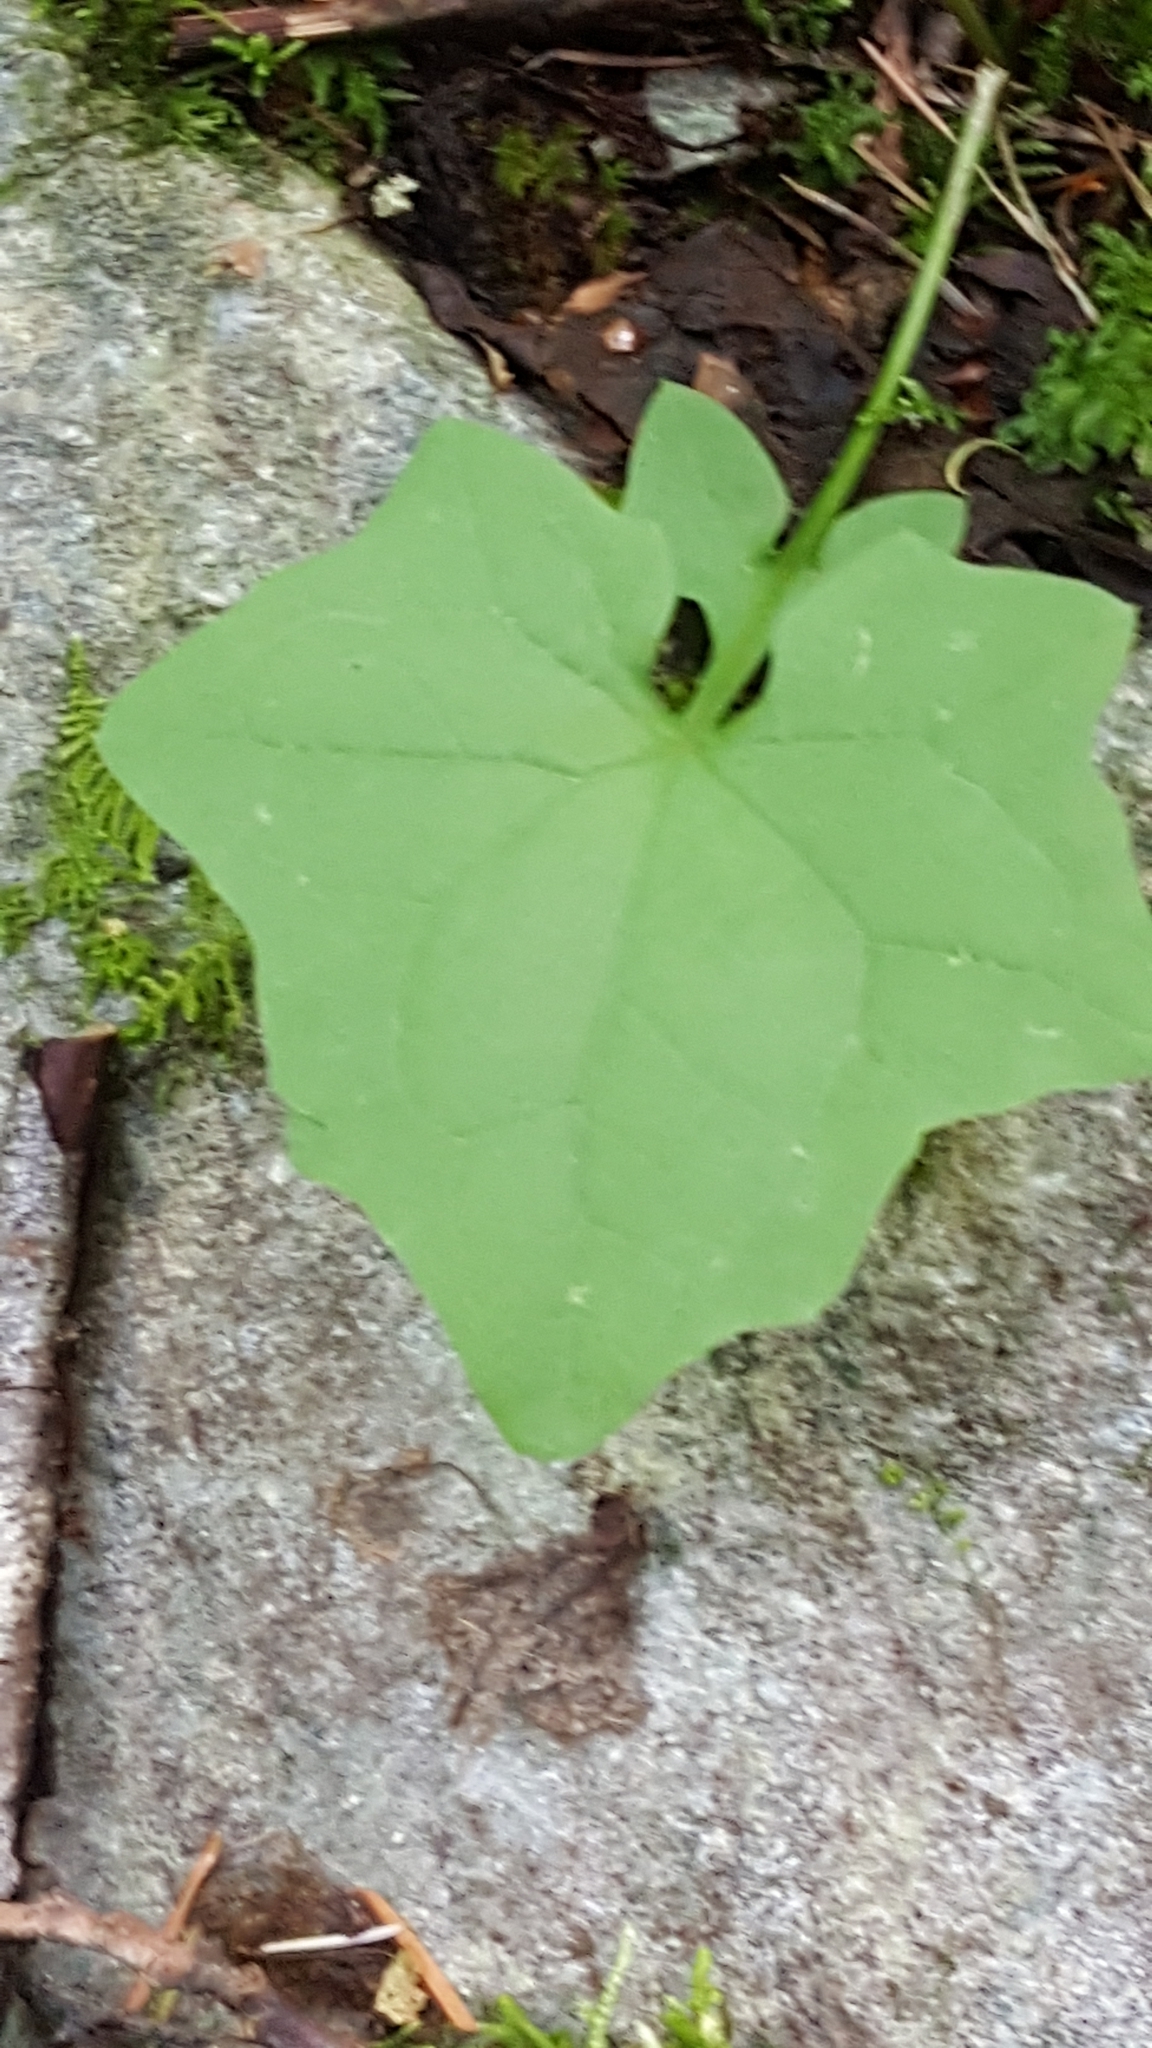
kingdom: Plantae
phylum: Tracheophyta
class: Magnoliopsida
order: Asterales
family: Asteraceae
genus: Mycelis
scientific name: Mycelis muralis
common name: Wall lettuce
